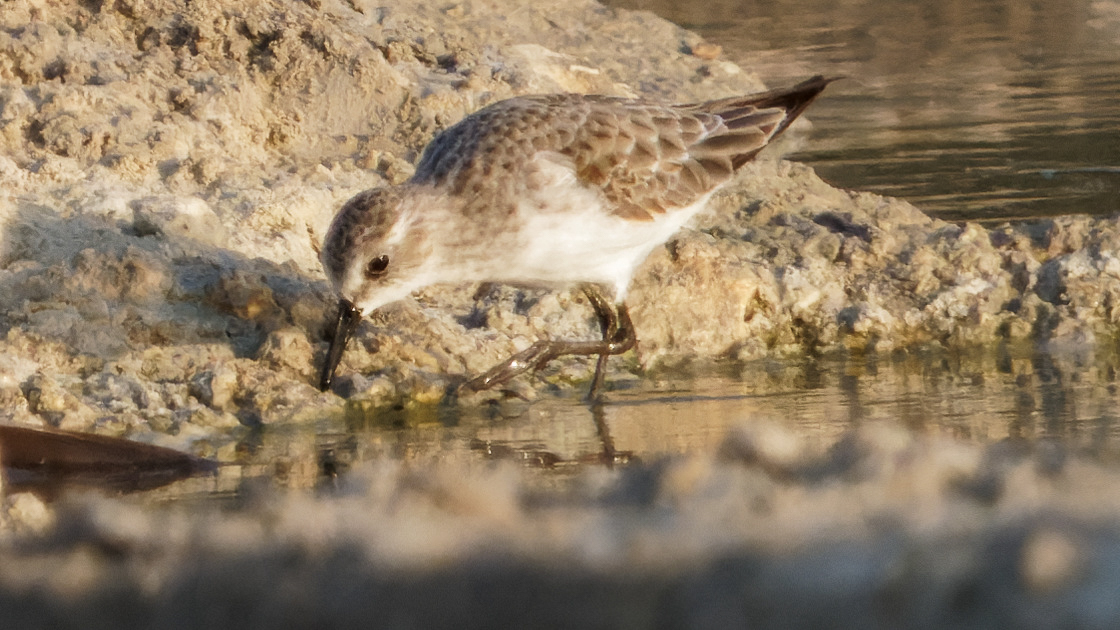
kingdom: Animalia
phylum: Chordata
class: Aves
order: Charadriiformes
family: Scolopacidae
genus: Calidris
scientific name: Calidris minuta
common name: Little stint
